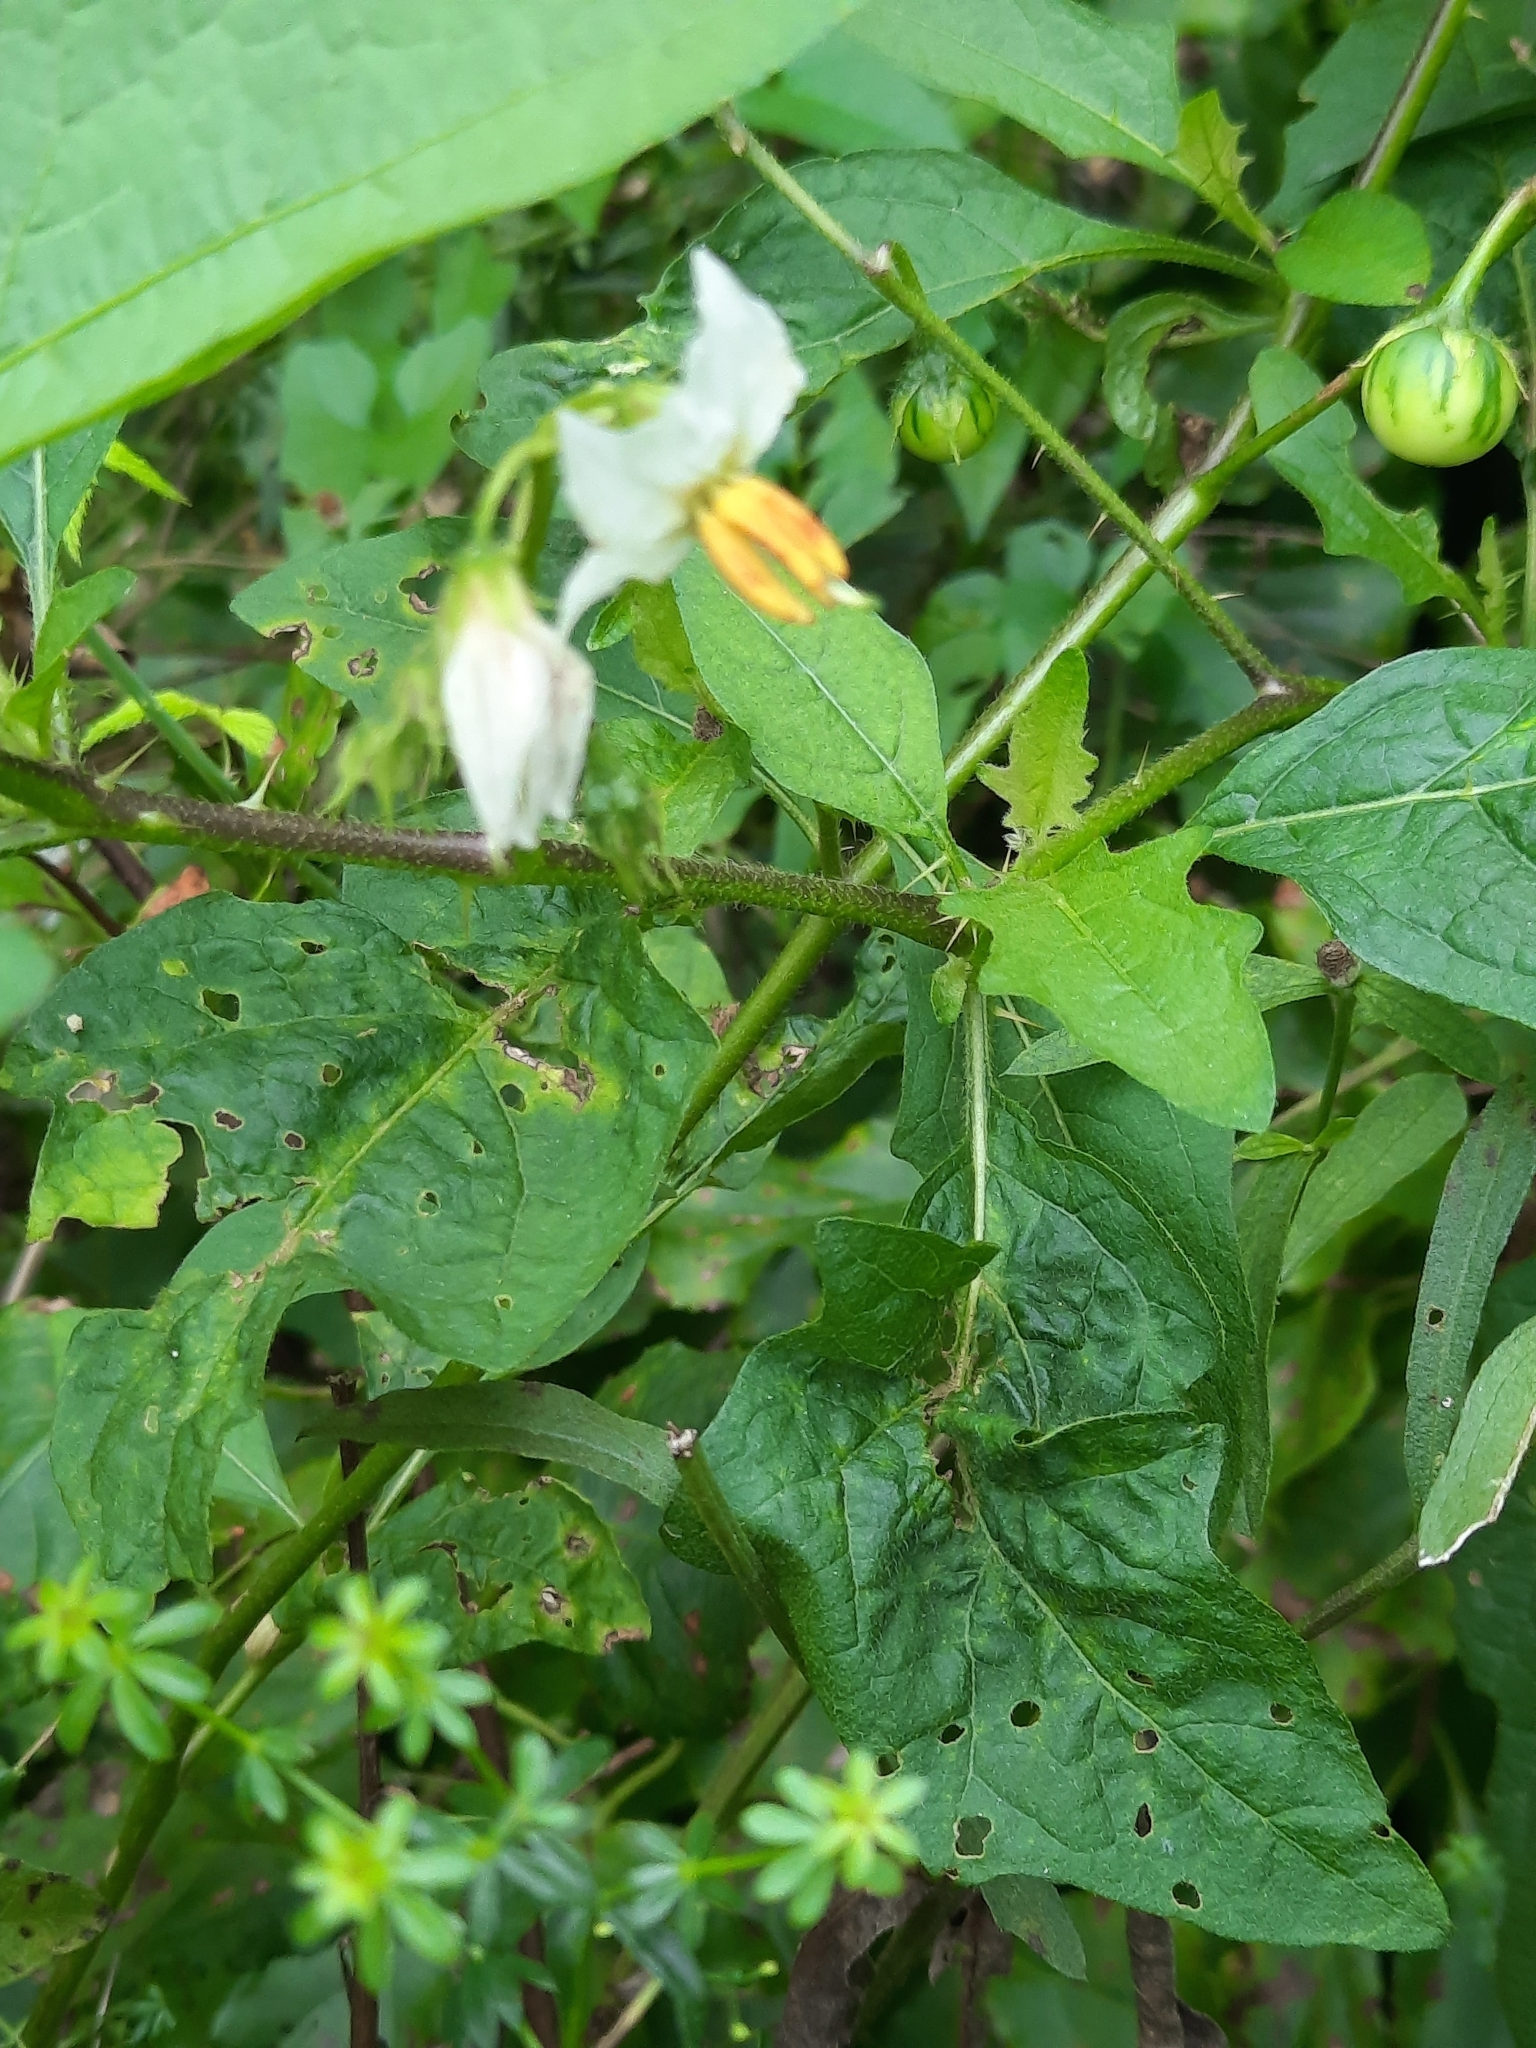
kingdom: Plantae
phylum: Tracheophyta
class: Magnoliopsida
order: Solanales
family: Solanaceae
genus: Solanum
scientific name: Solanum carolinense
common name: Horse-nettle
